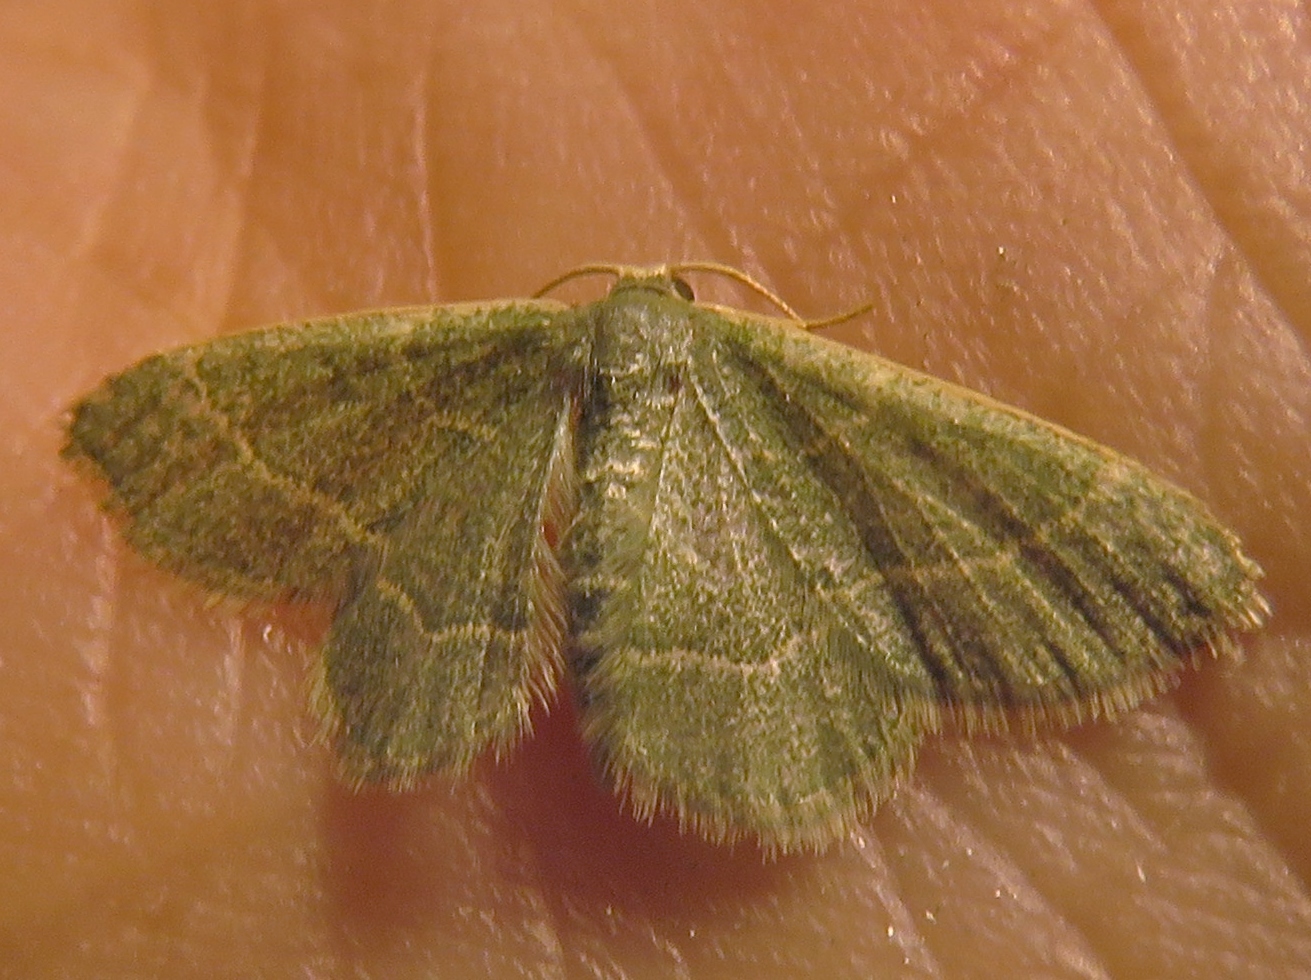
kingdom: Animalia
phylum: Arthropoda
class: Insecta
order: Lepidoptera
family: Geometridae
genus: Chlorochlamys
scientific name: Chlorochlamys phyllinaria
